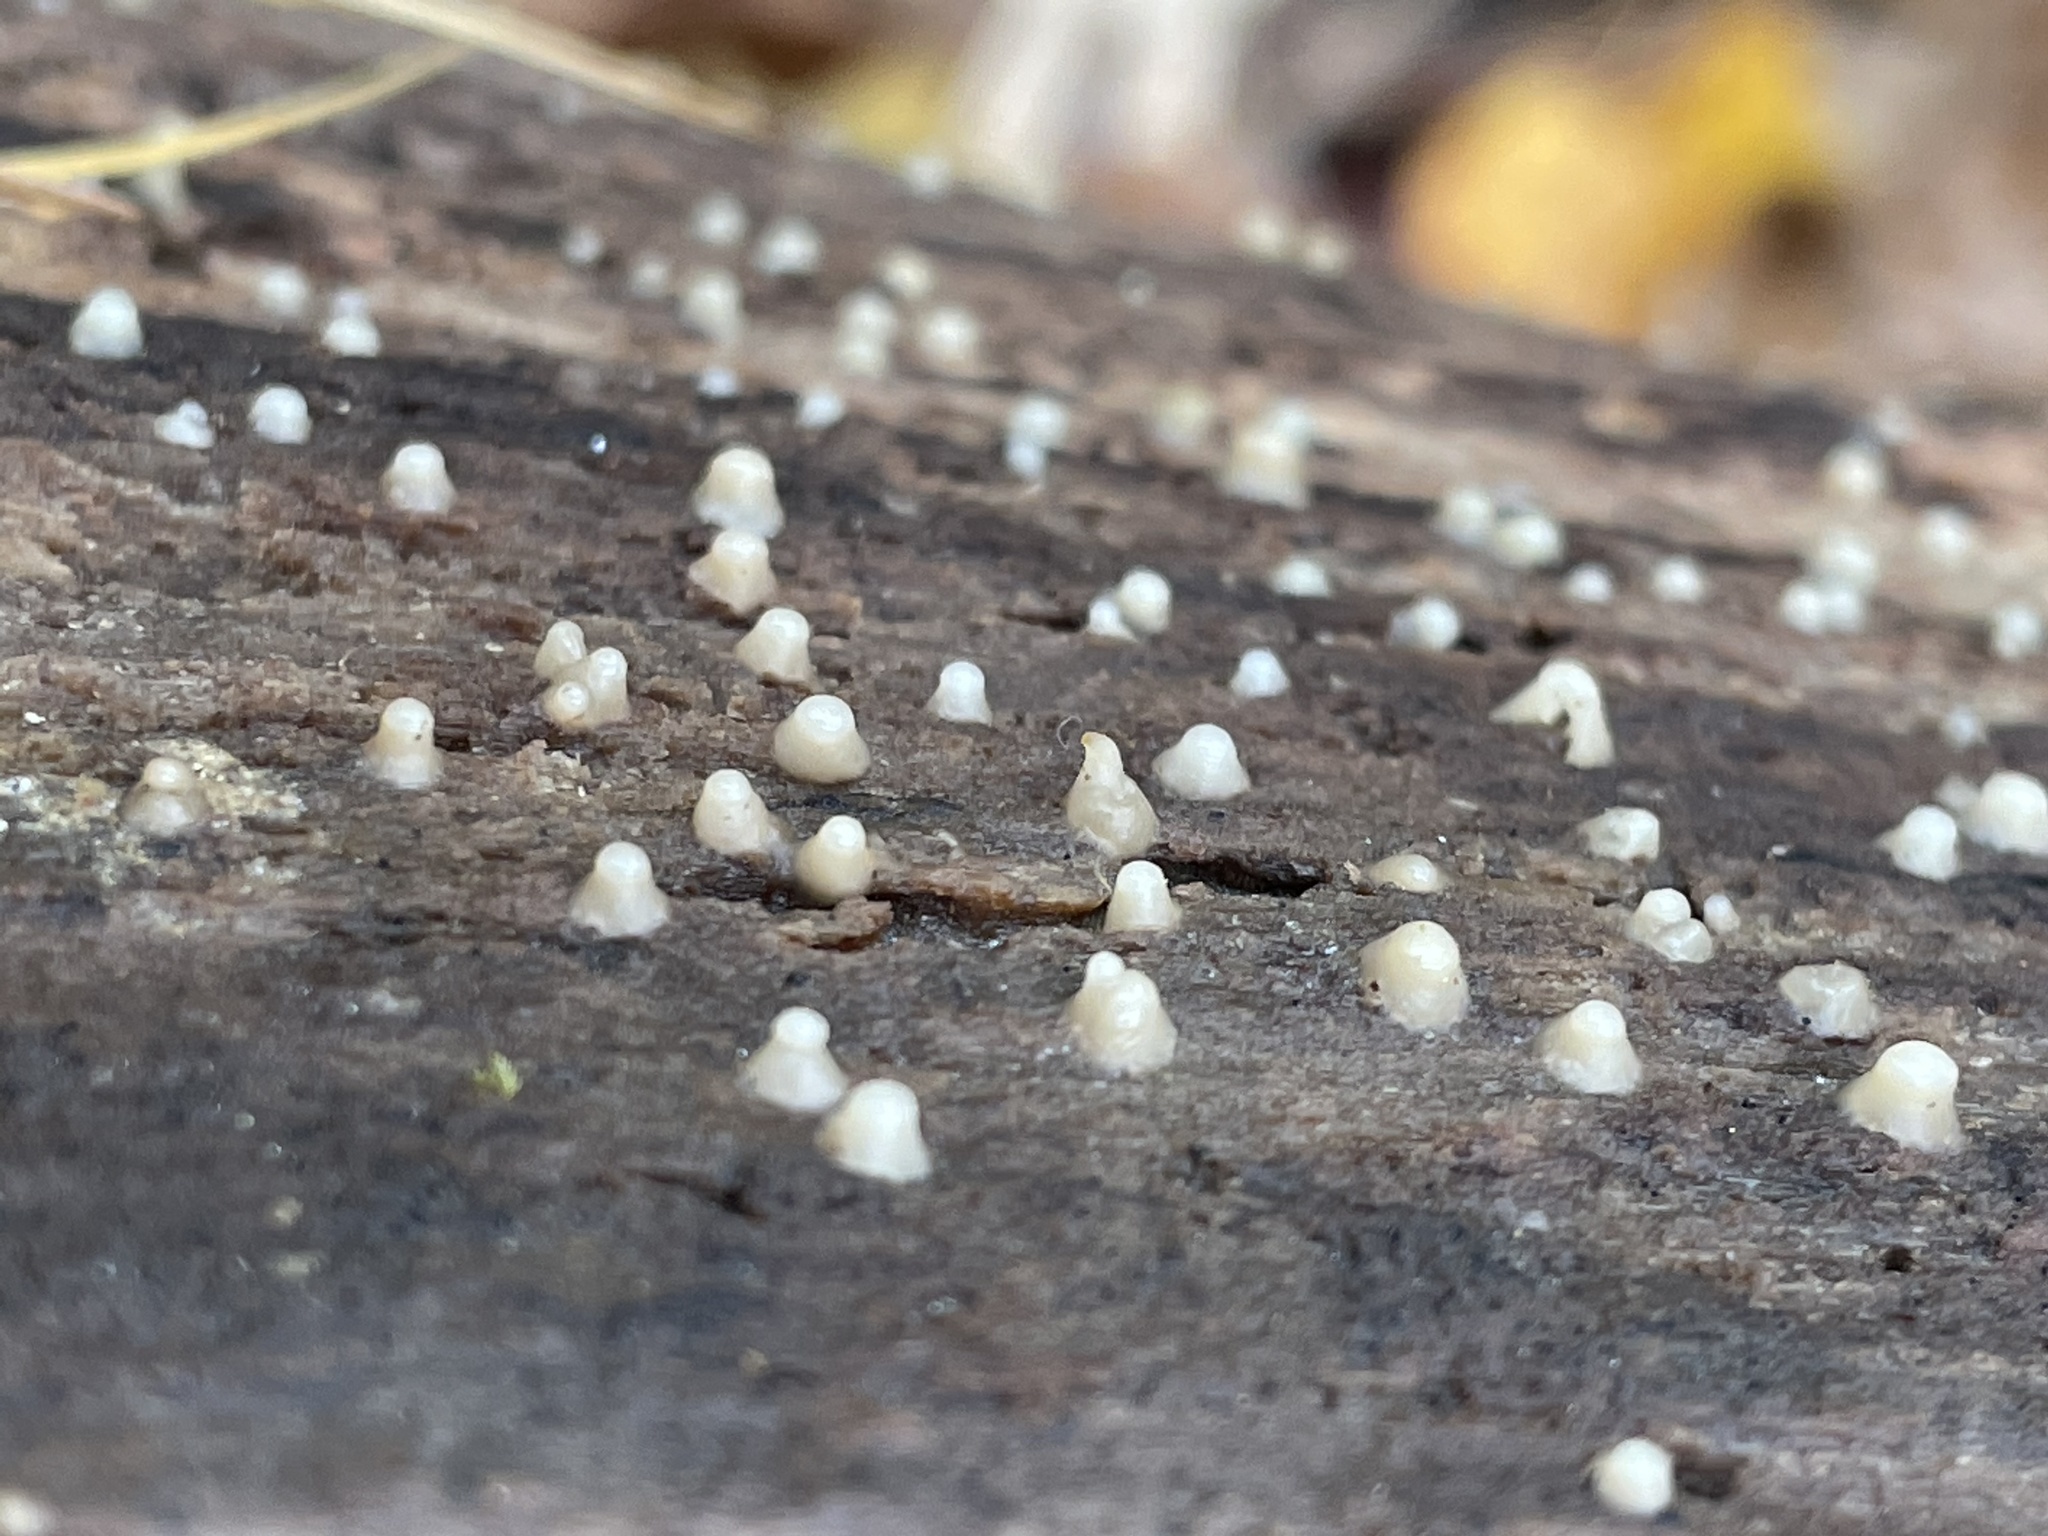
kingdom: Fungi
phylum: Basidiomycota
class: Atractiellomycetes
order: Atractiellales
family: Phleogenaceae
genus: Helicogloea
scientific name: Helicogloea compressa
